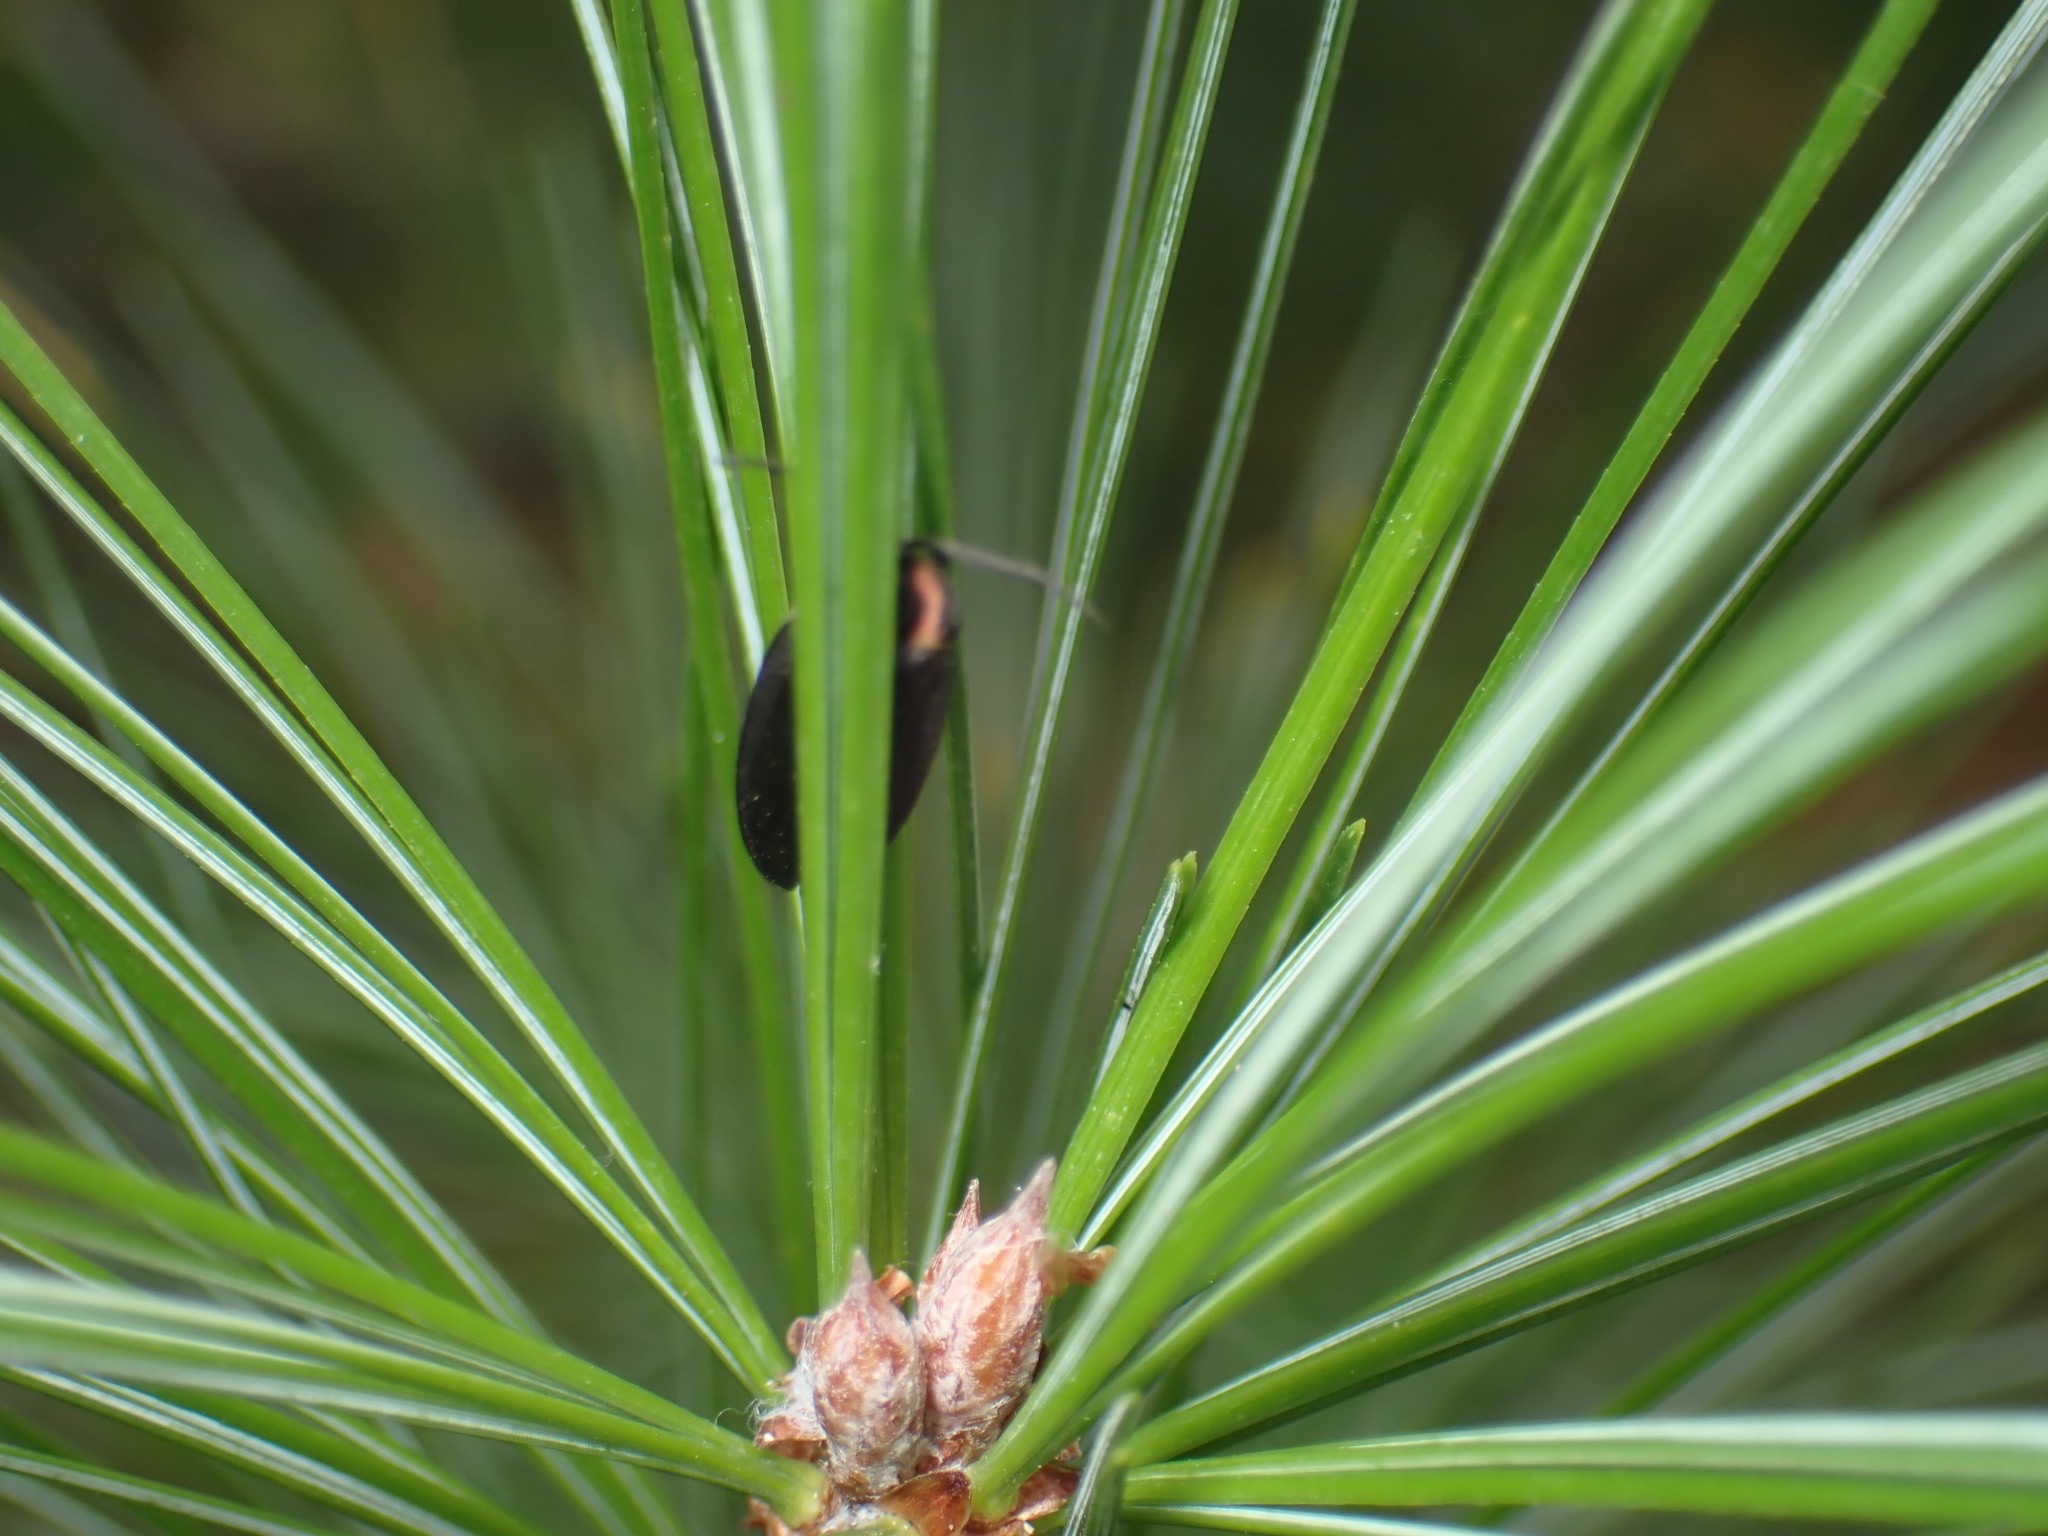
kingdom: Animalia
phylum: Arthropoda
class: Insecta
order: Coleoptera
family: Lampyridae
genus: Photinus
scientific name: Photinus corrusca
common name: Winter firefly
